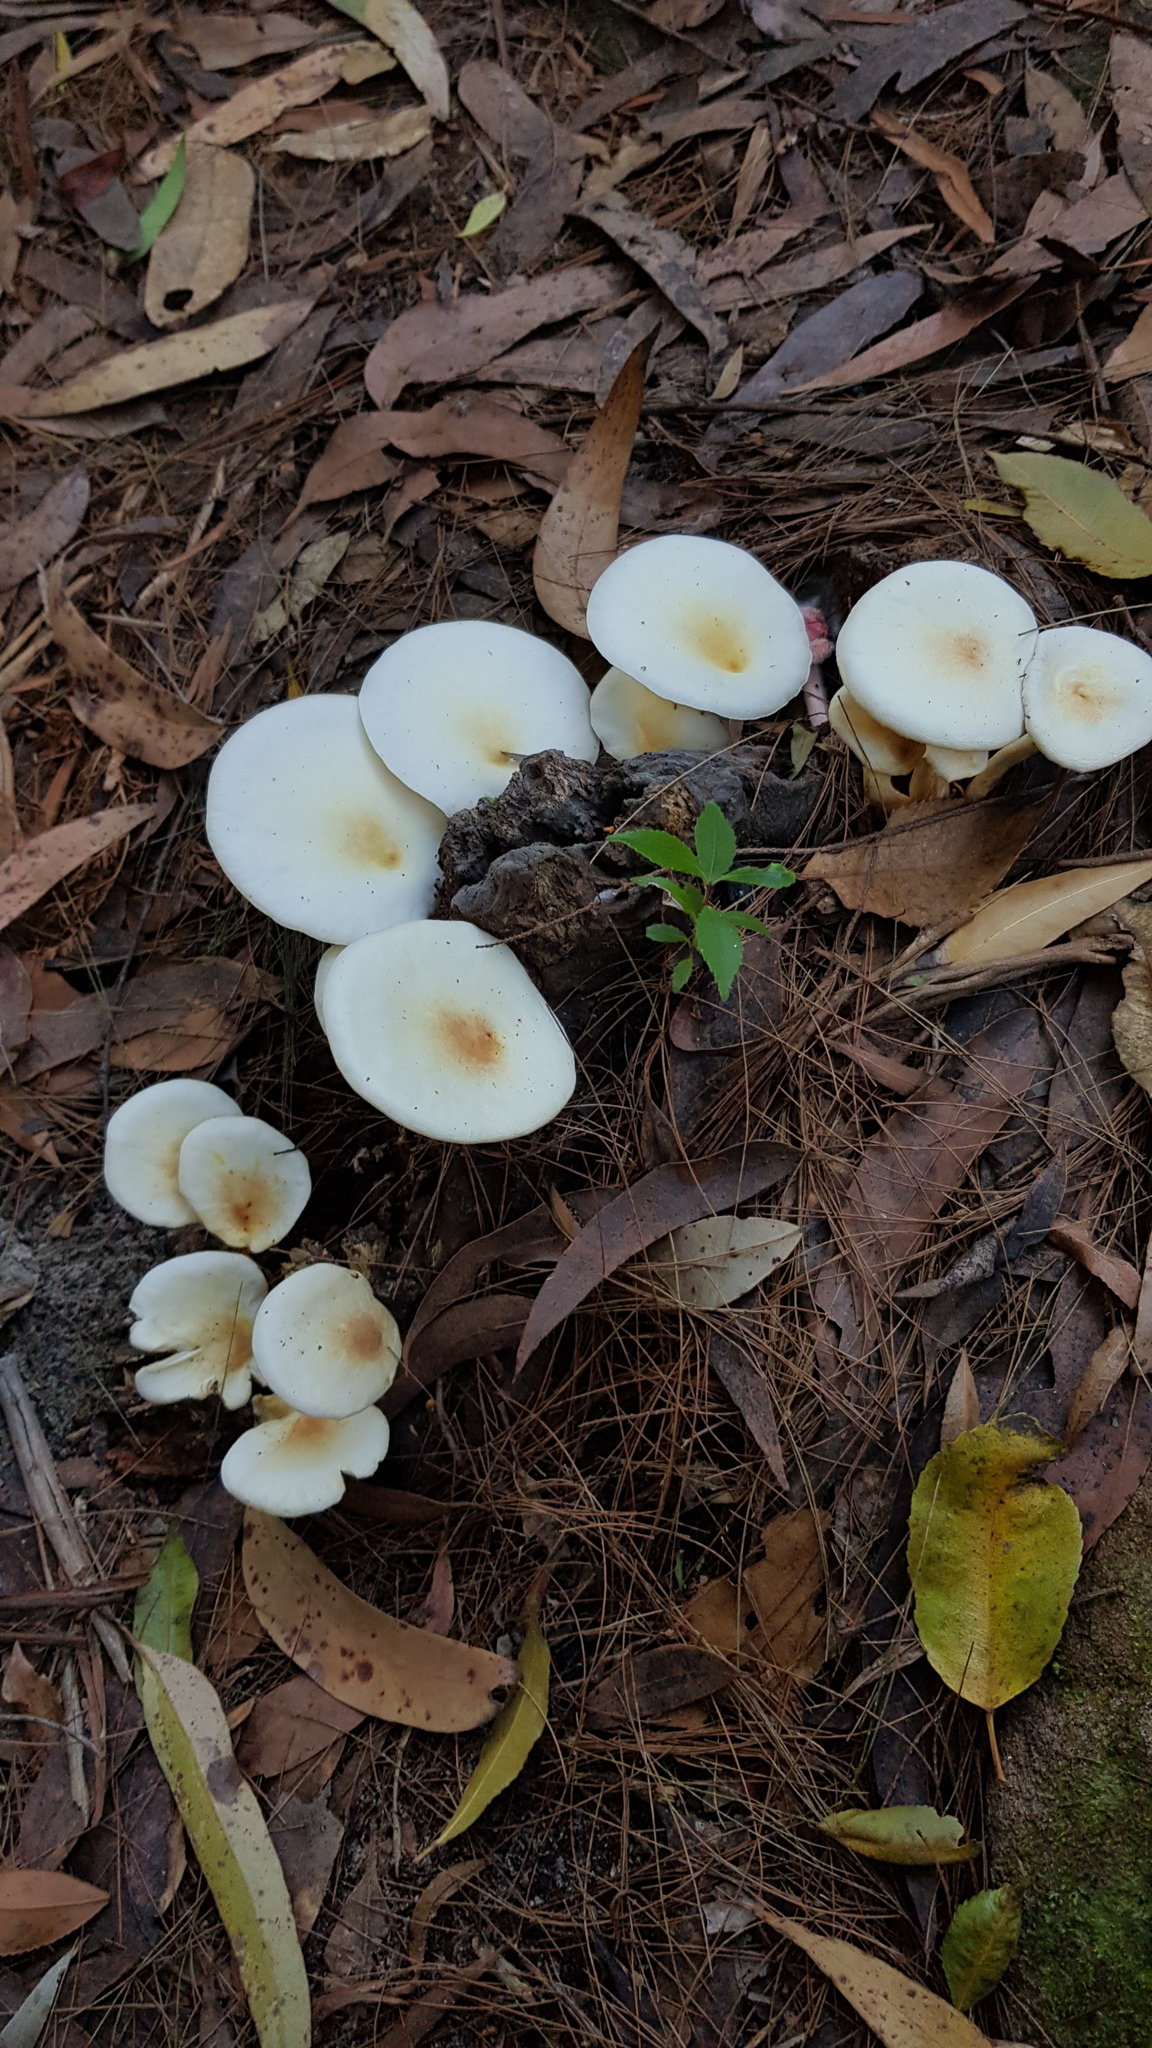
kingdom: Fungi
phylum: Basidiomycota
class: Agaricomycetes
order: Agaricales
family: Omphalotaceae
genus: Omphalotus
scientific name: Omphalotus nidiformis
